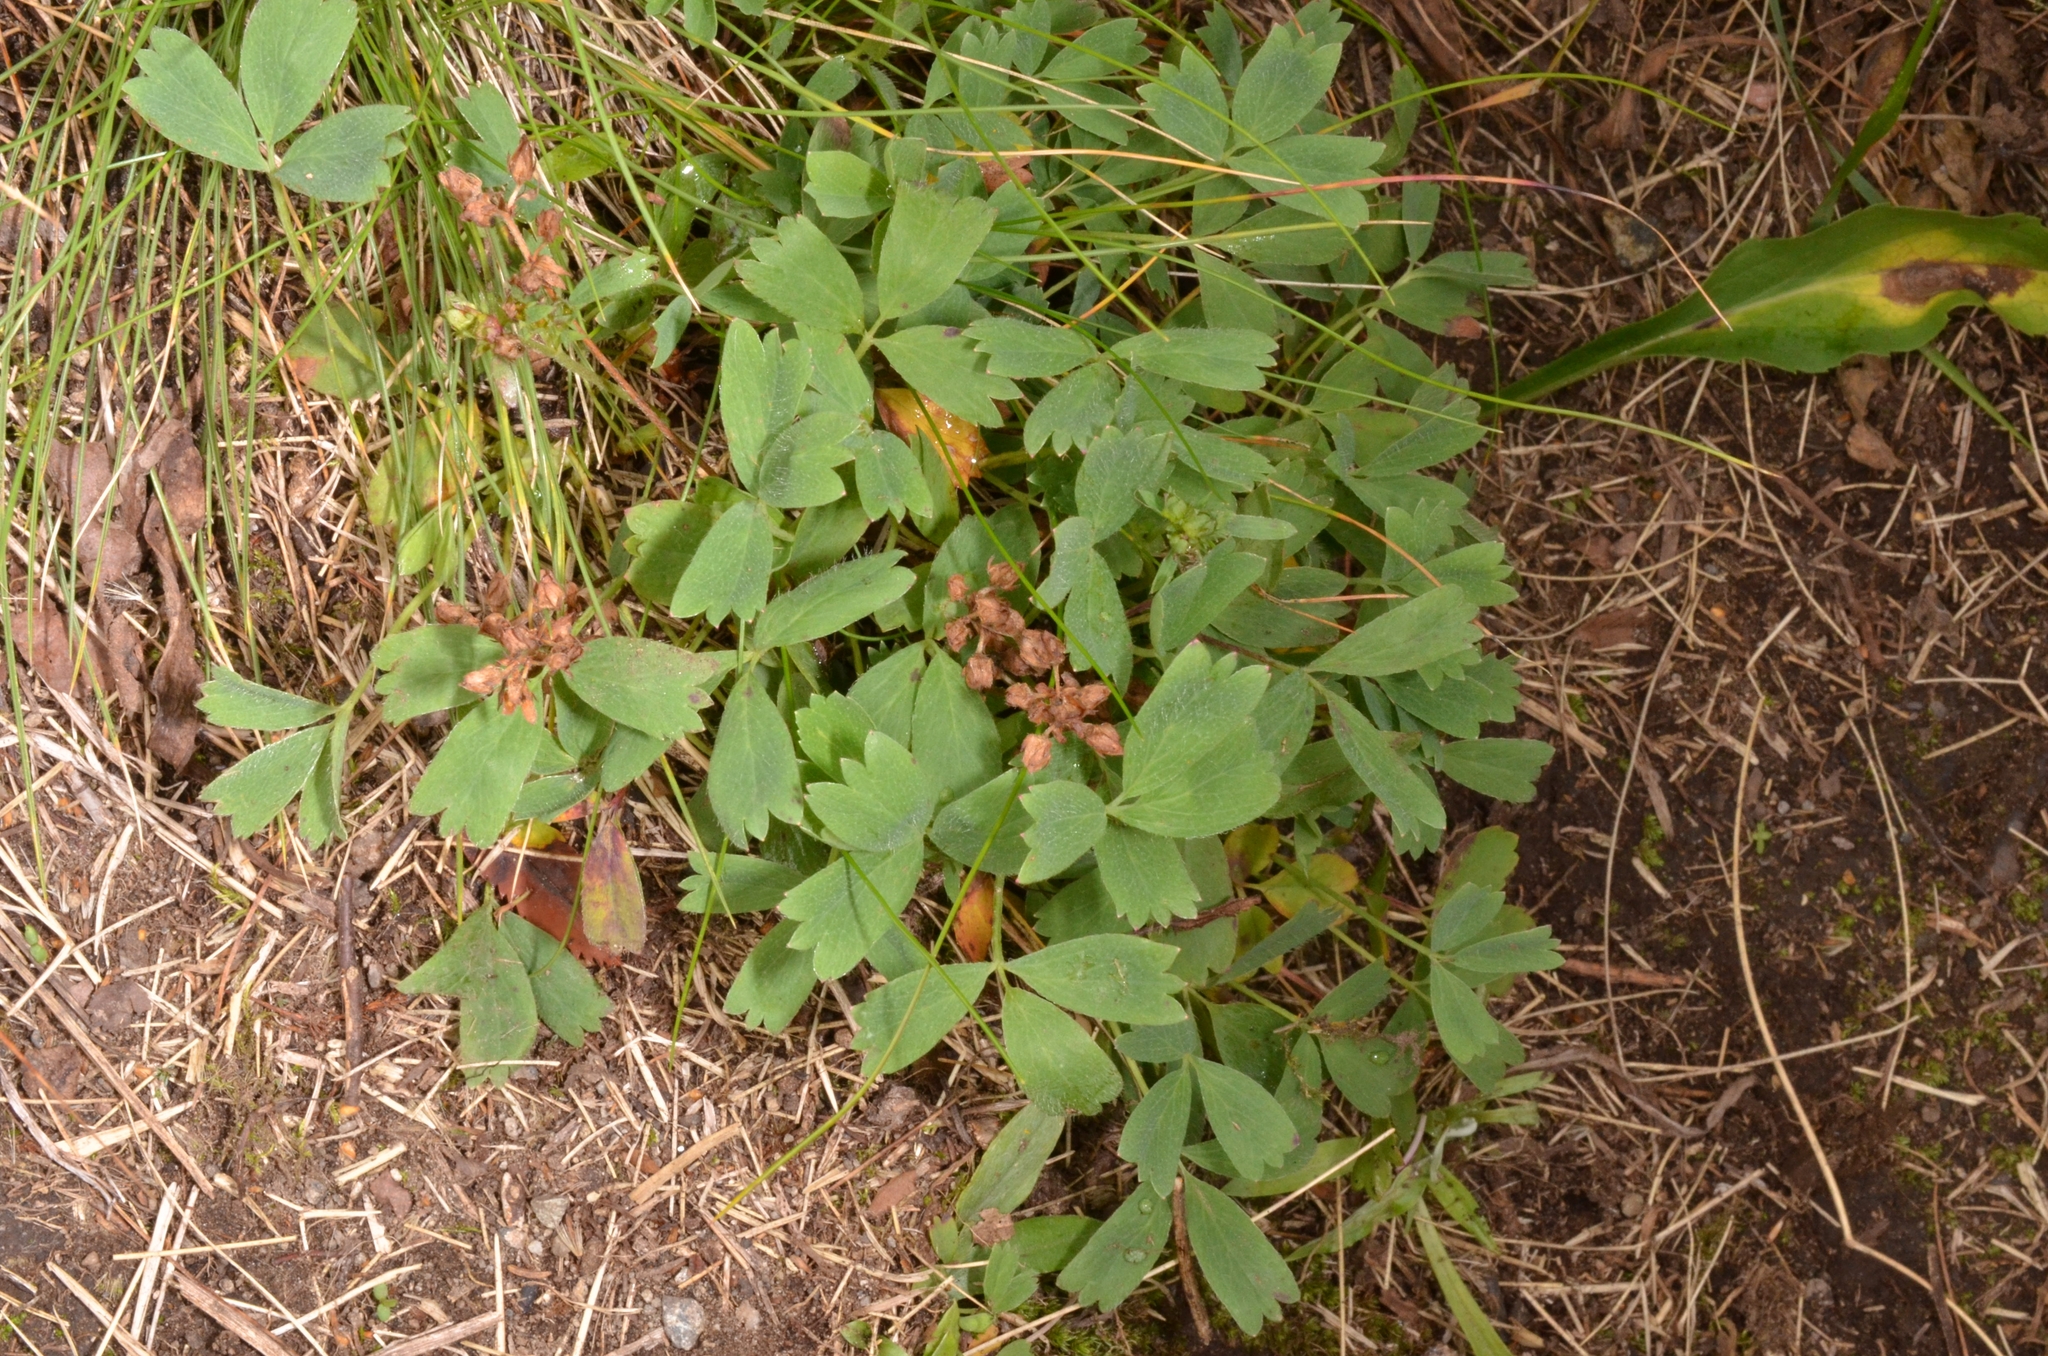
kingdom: Plantae
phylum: Tracheophyta
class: Magnoliopsida
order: Rosales
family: Rosaceae
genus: Sibbaldia
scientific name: Sibbaldia procumbens
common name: Creeping sibbaldia
